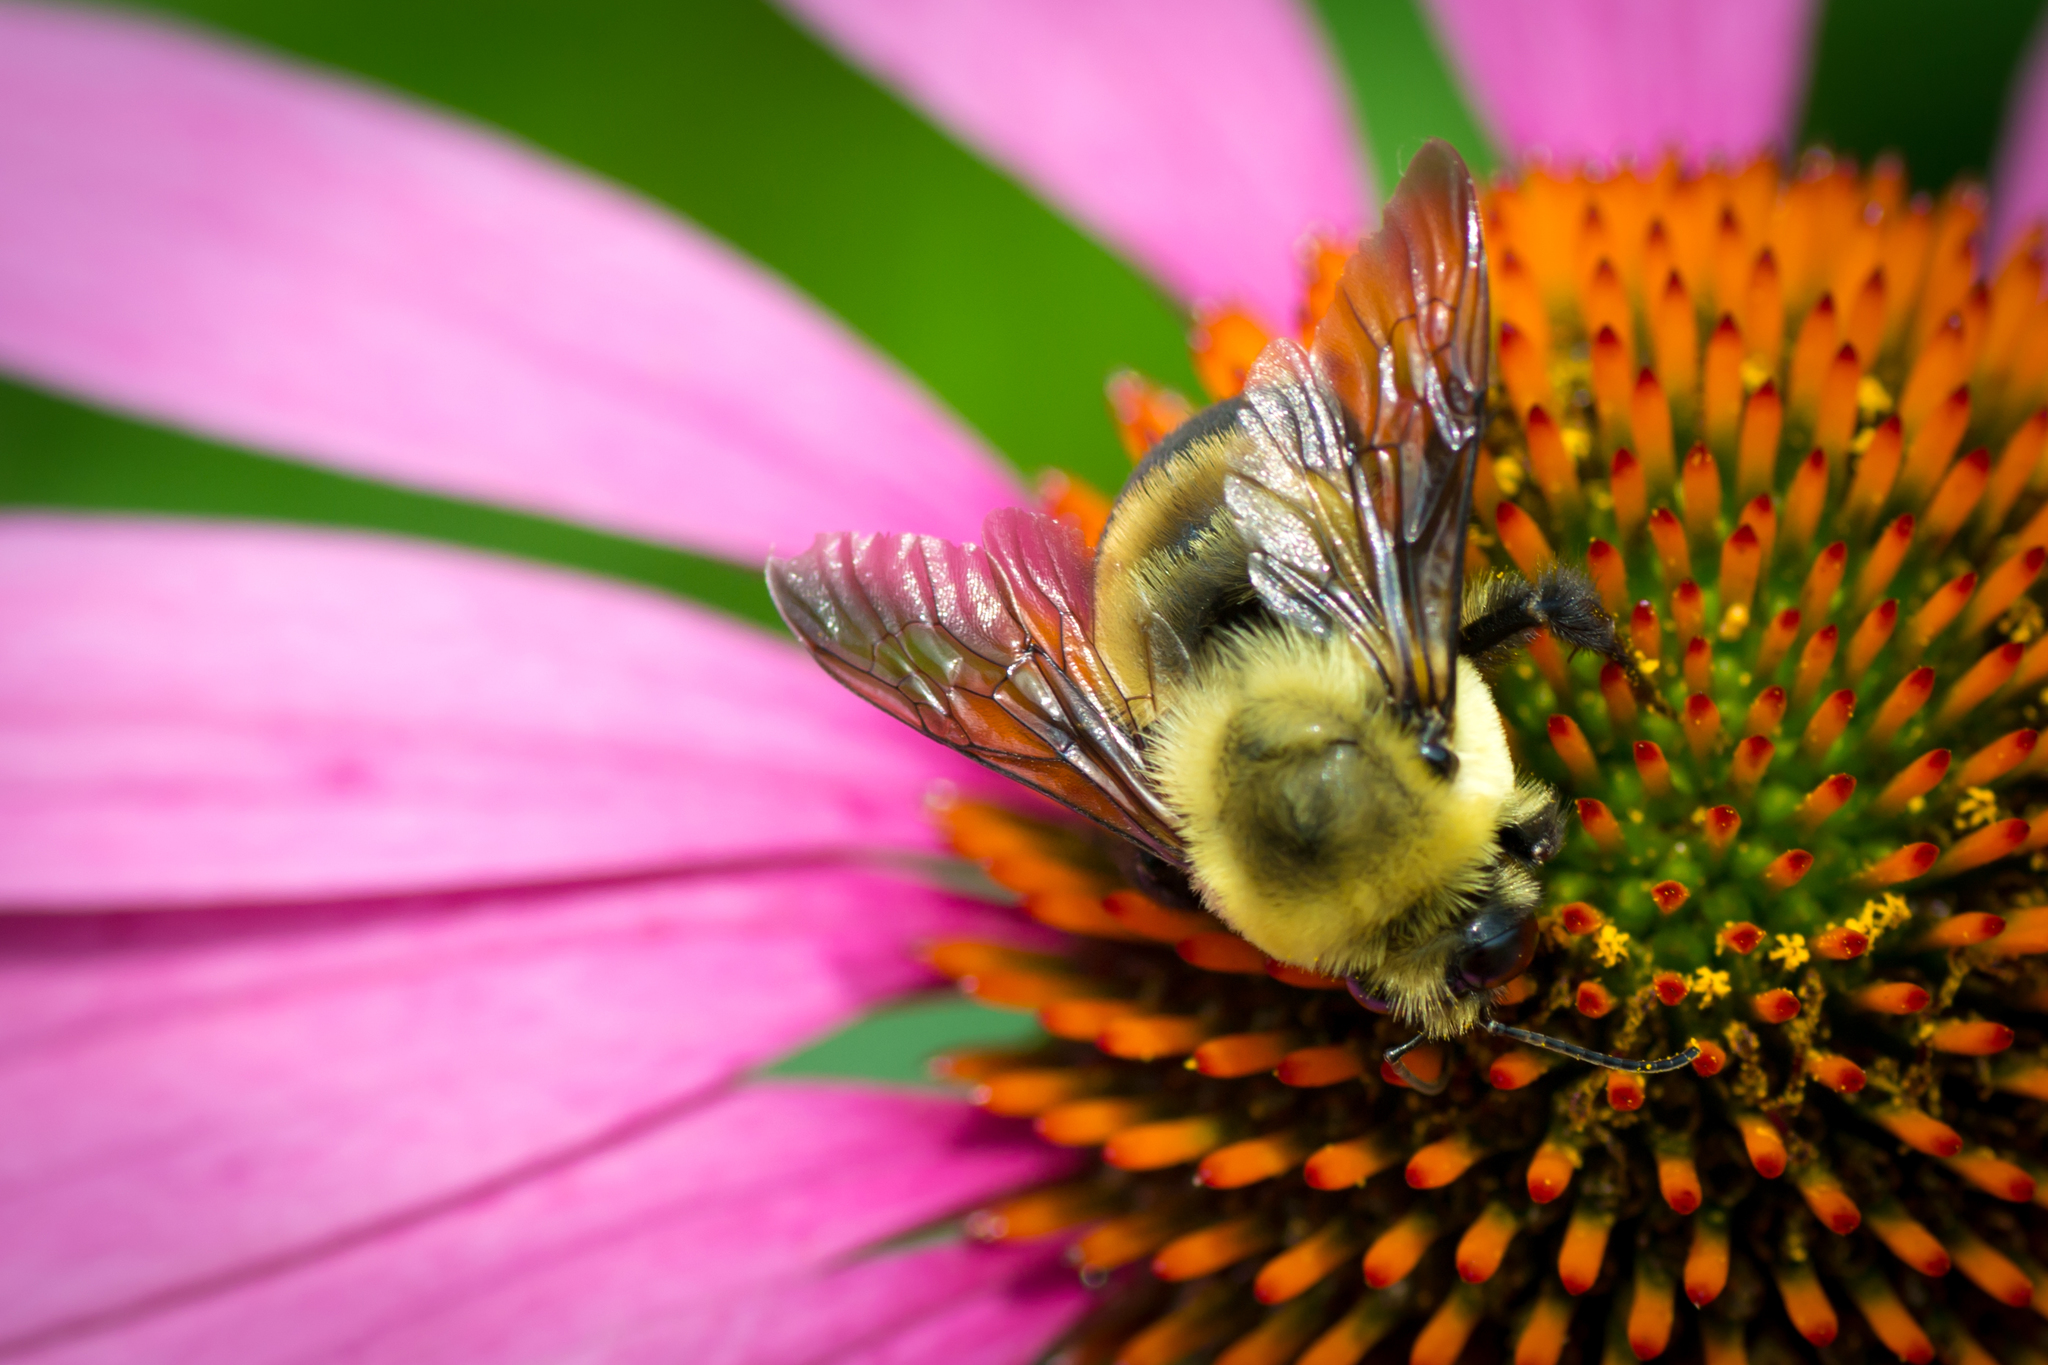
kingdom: Animalia
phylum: Arthropoda
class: Insecta
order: Hymenoptera
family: Apidae
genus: Bombus
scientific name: Bombus griseocollis
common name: Brown-belted bumble bee
